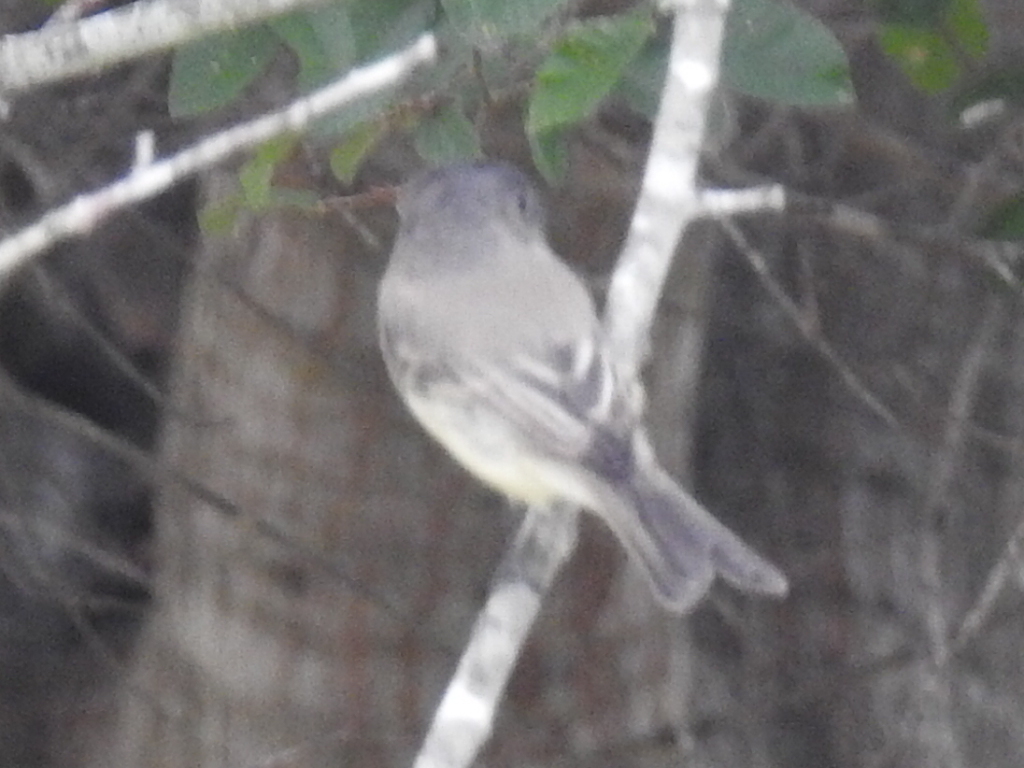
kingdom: Animalia
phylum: Chordata
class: Aves
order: Passeriformes
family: Tyrannidae
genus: Sayornis
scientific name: Sayornis phoebe
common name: Eastern phoebe
